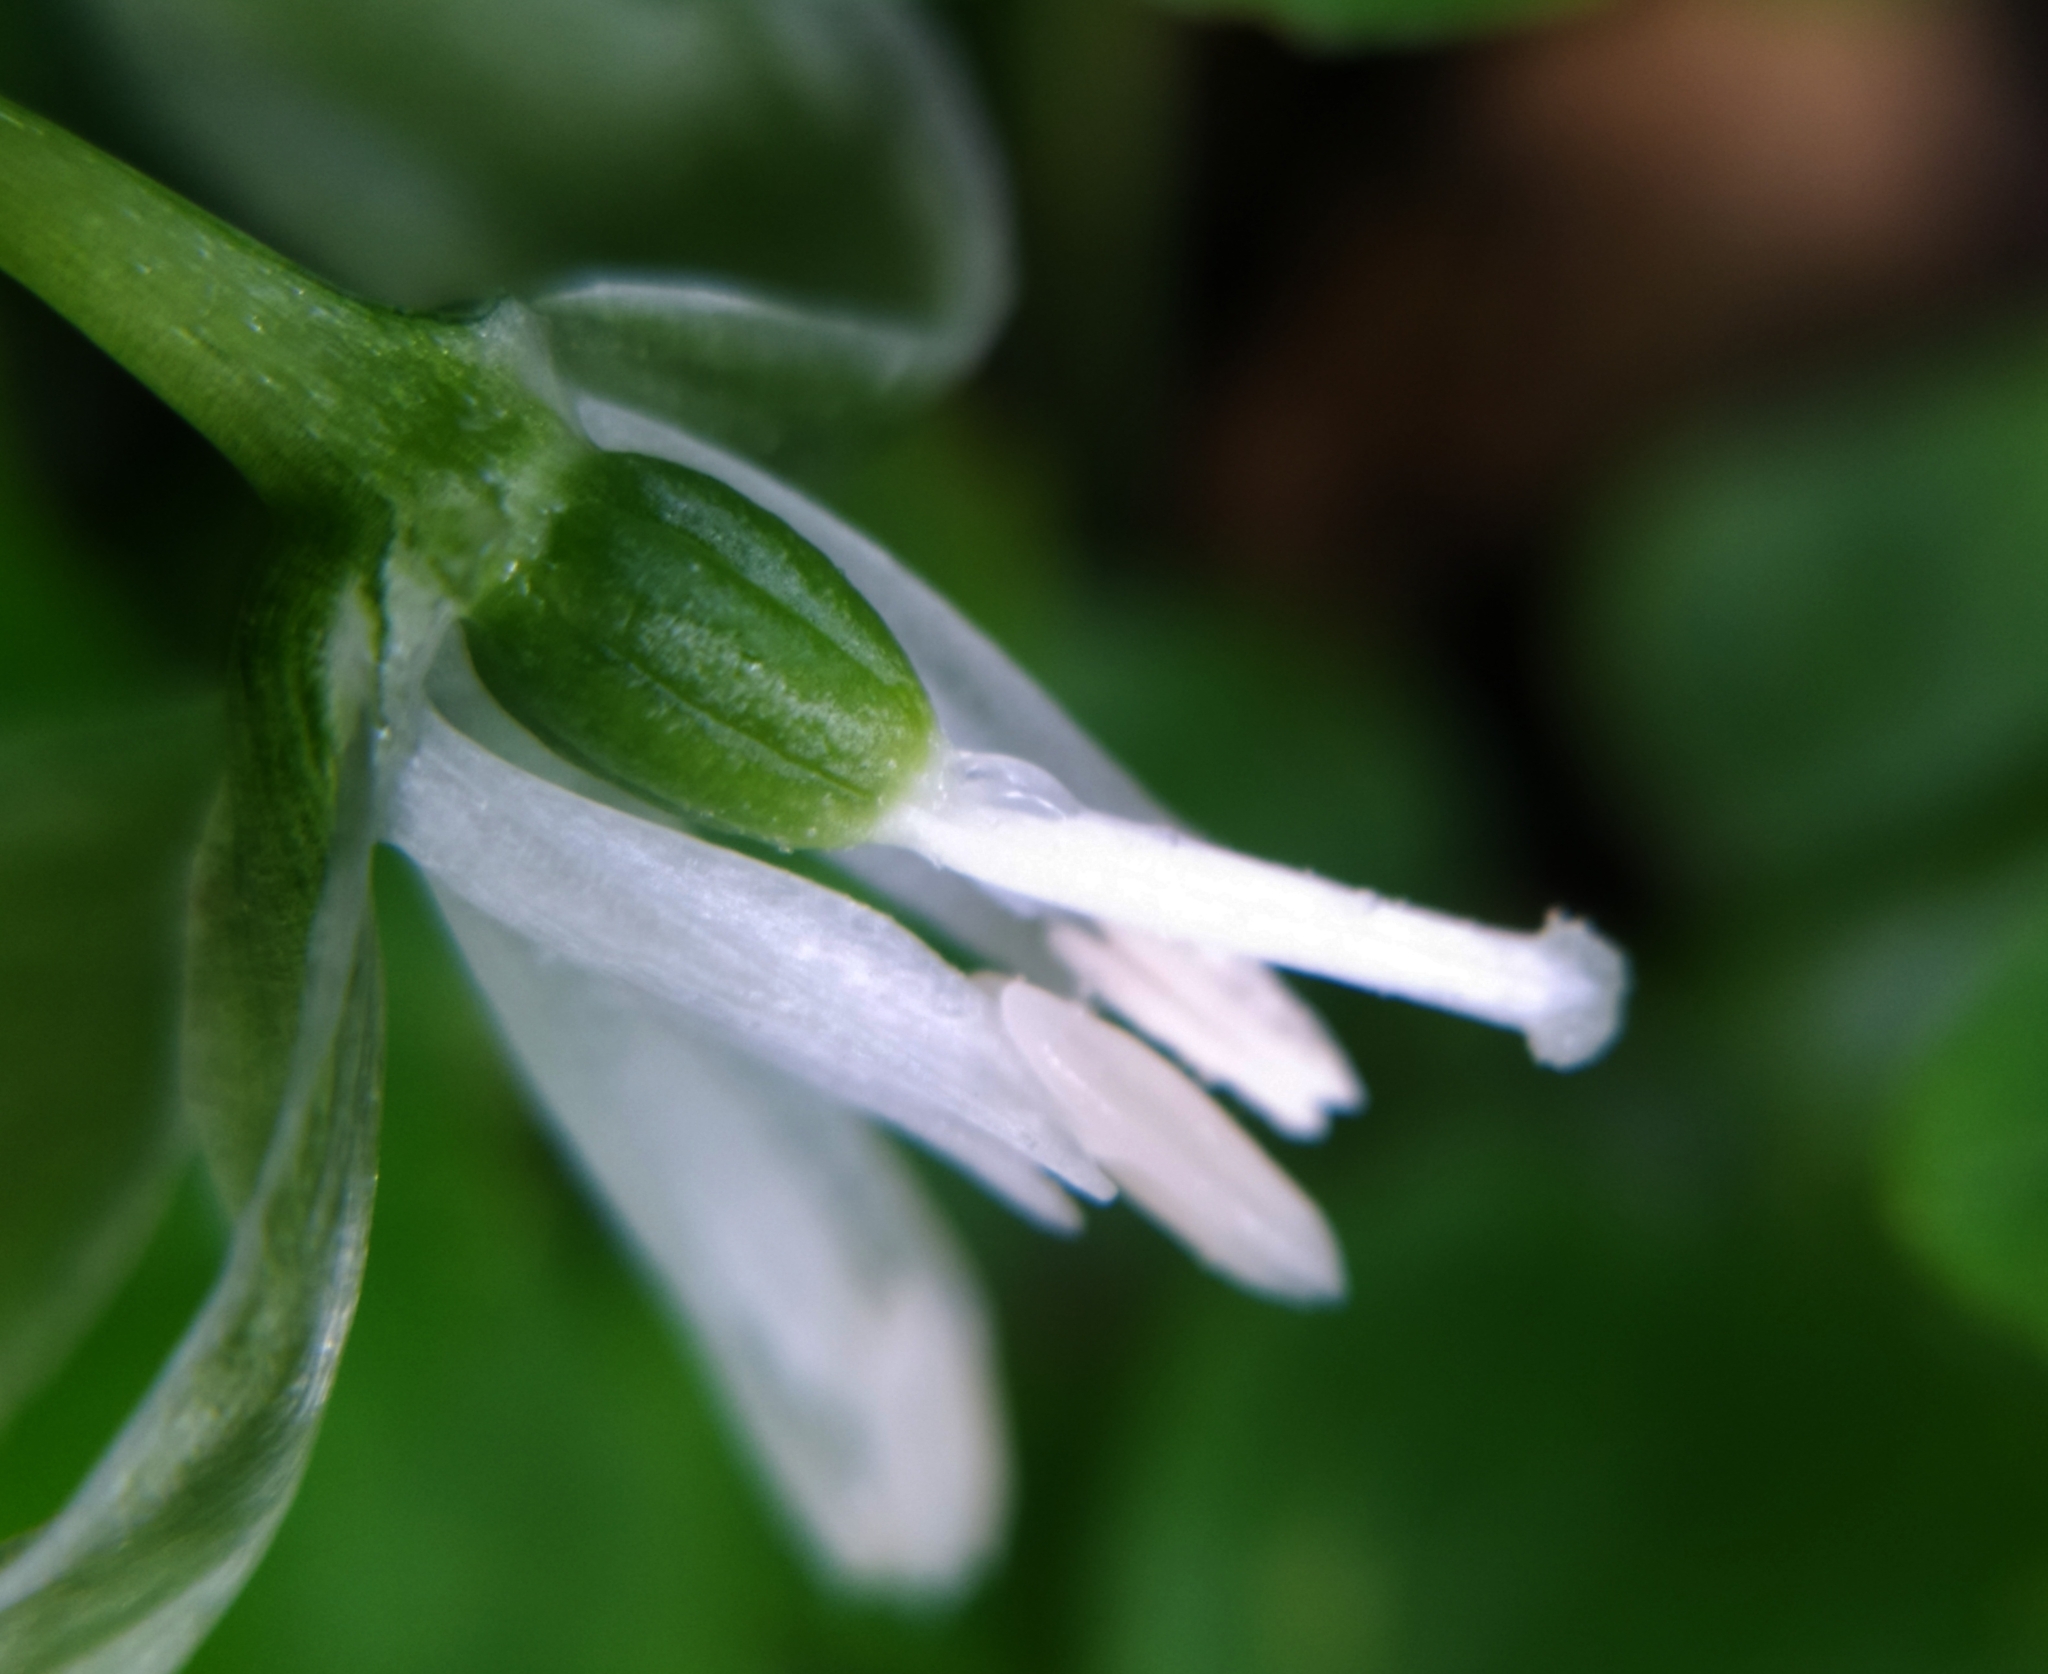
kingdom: Plantae
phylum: Tracheophyta
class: Liliopsida
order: Asparagales
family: Asparagaceae
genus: Ornithogalum
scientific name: Ornithogalum nutans
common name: Drooping star-of-bethlehem
